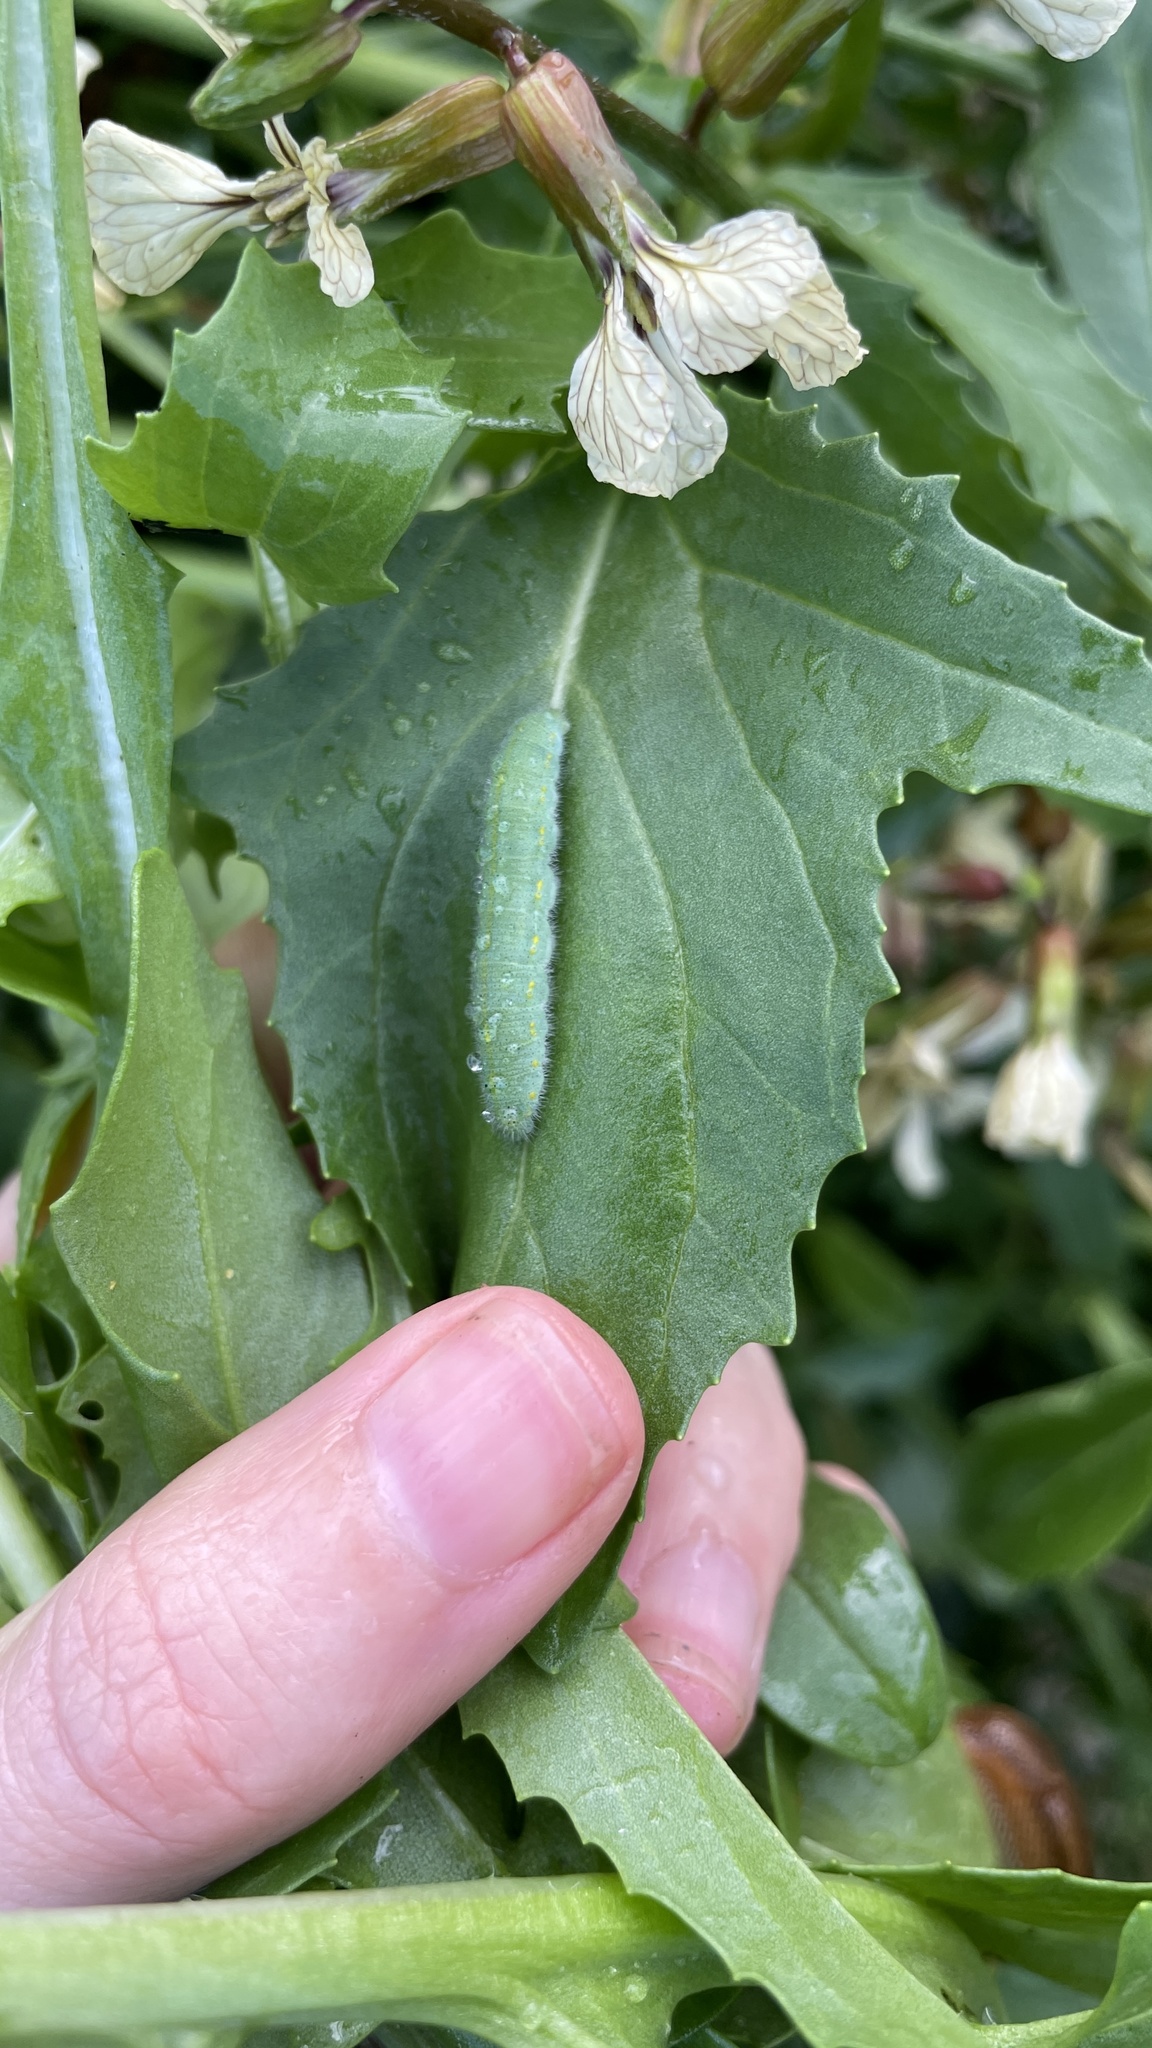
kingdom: Animalia
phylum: Arthropoda
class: Insecta
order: Lepidoptera
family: Pieridae
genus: Pieris
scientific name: Pieris rapae
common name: Small white
